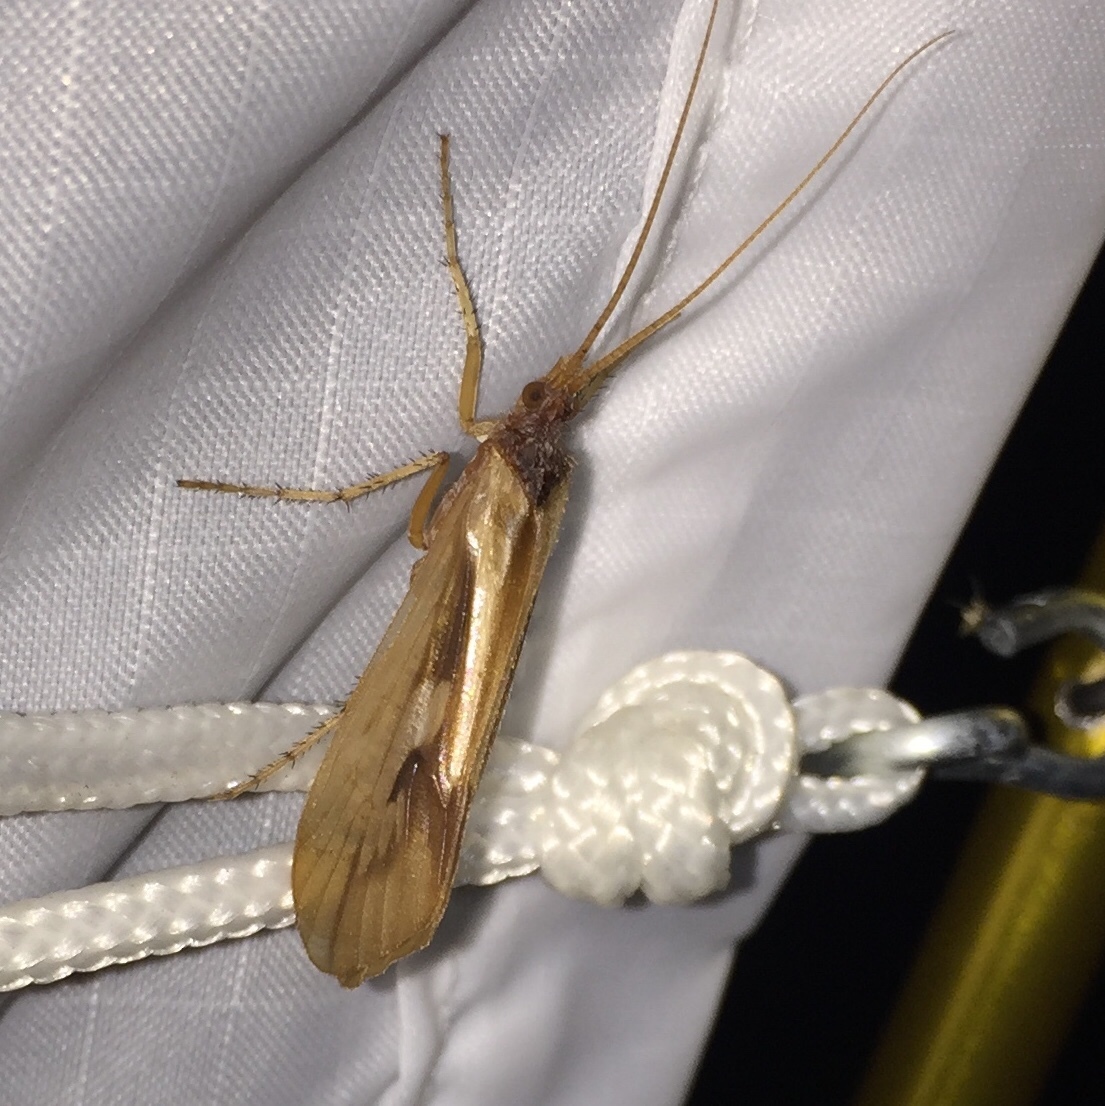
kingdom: Animalia
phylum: Arthropoda
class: Insecta
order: Trichoptera
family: Limnephilidae
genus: Platycentropus
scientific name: Platycentropus radiatus
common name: Chocolate-and-cream sedge
